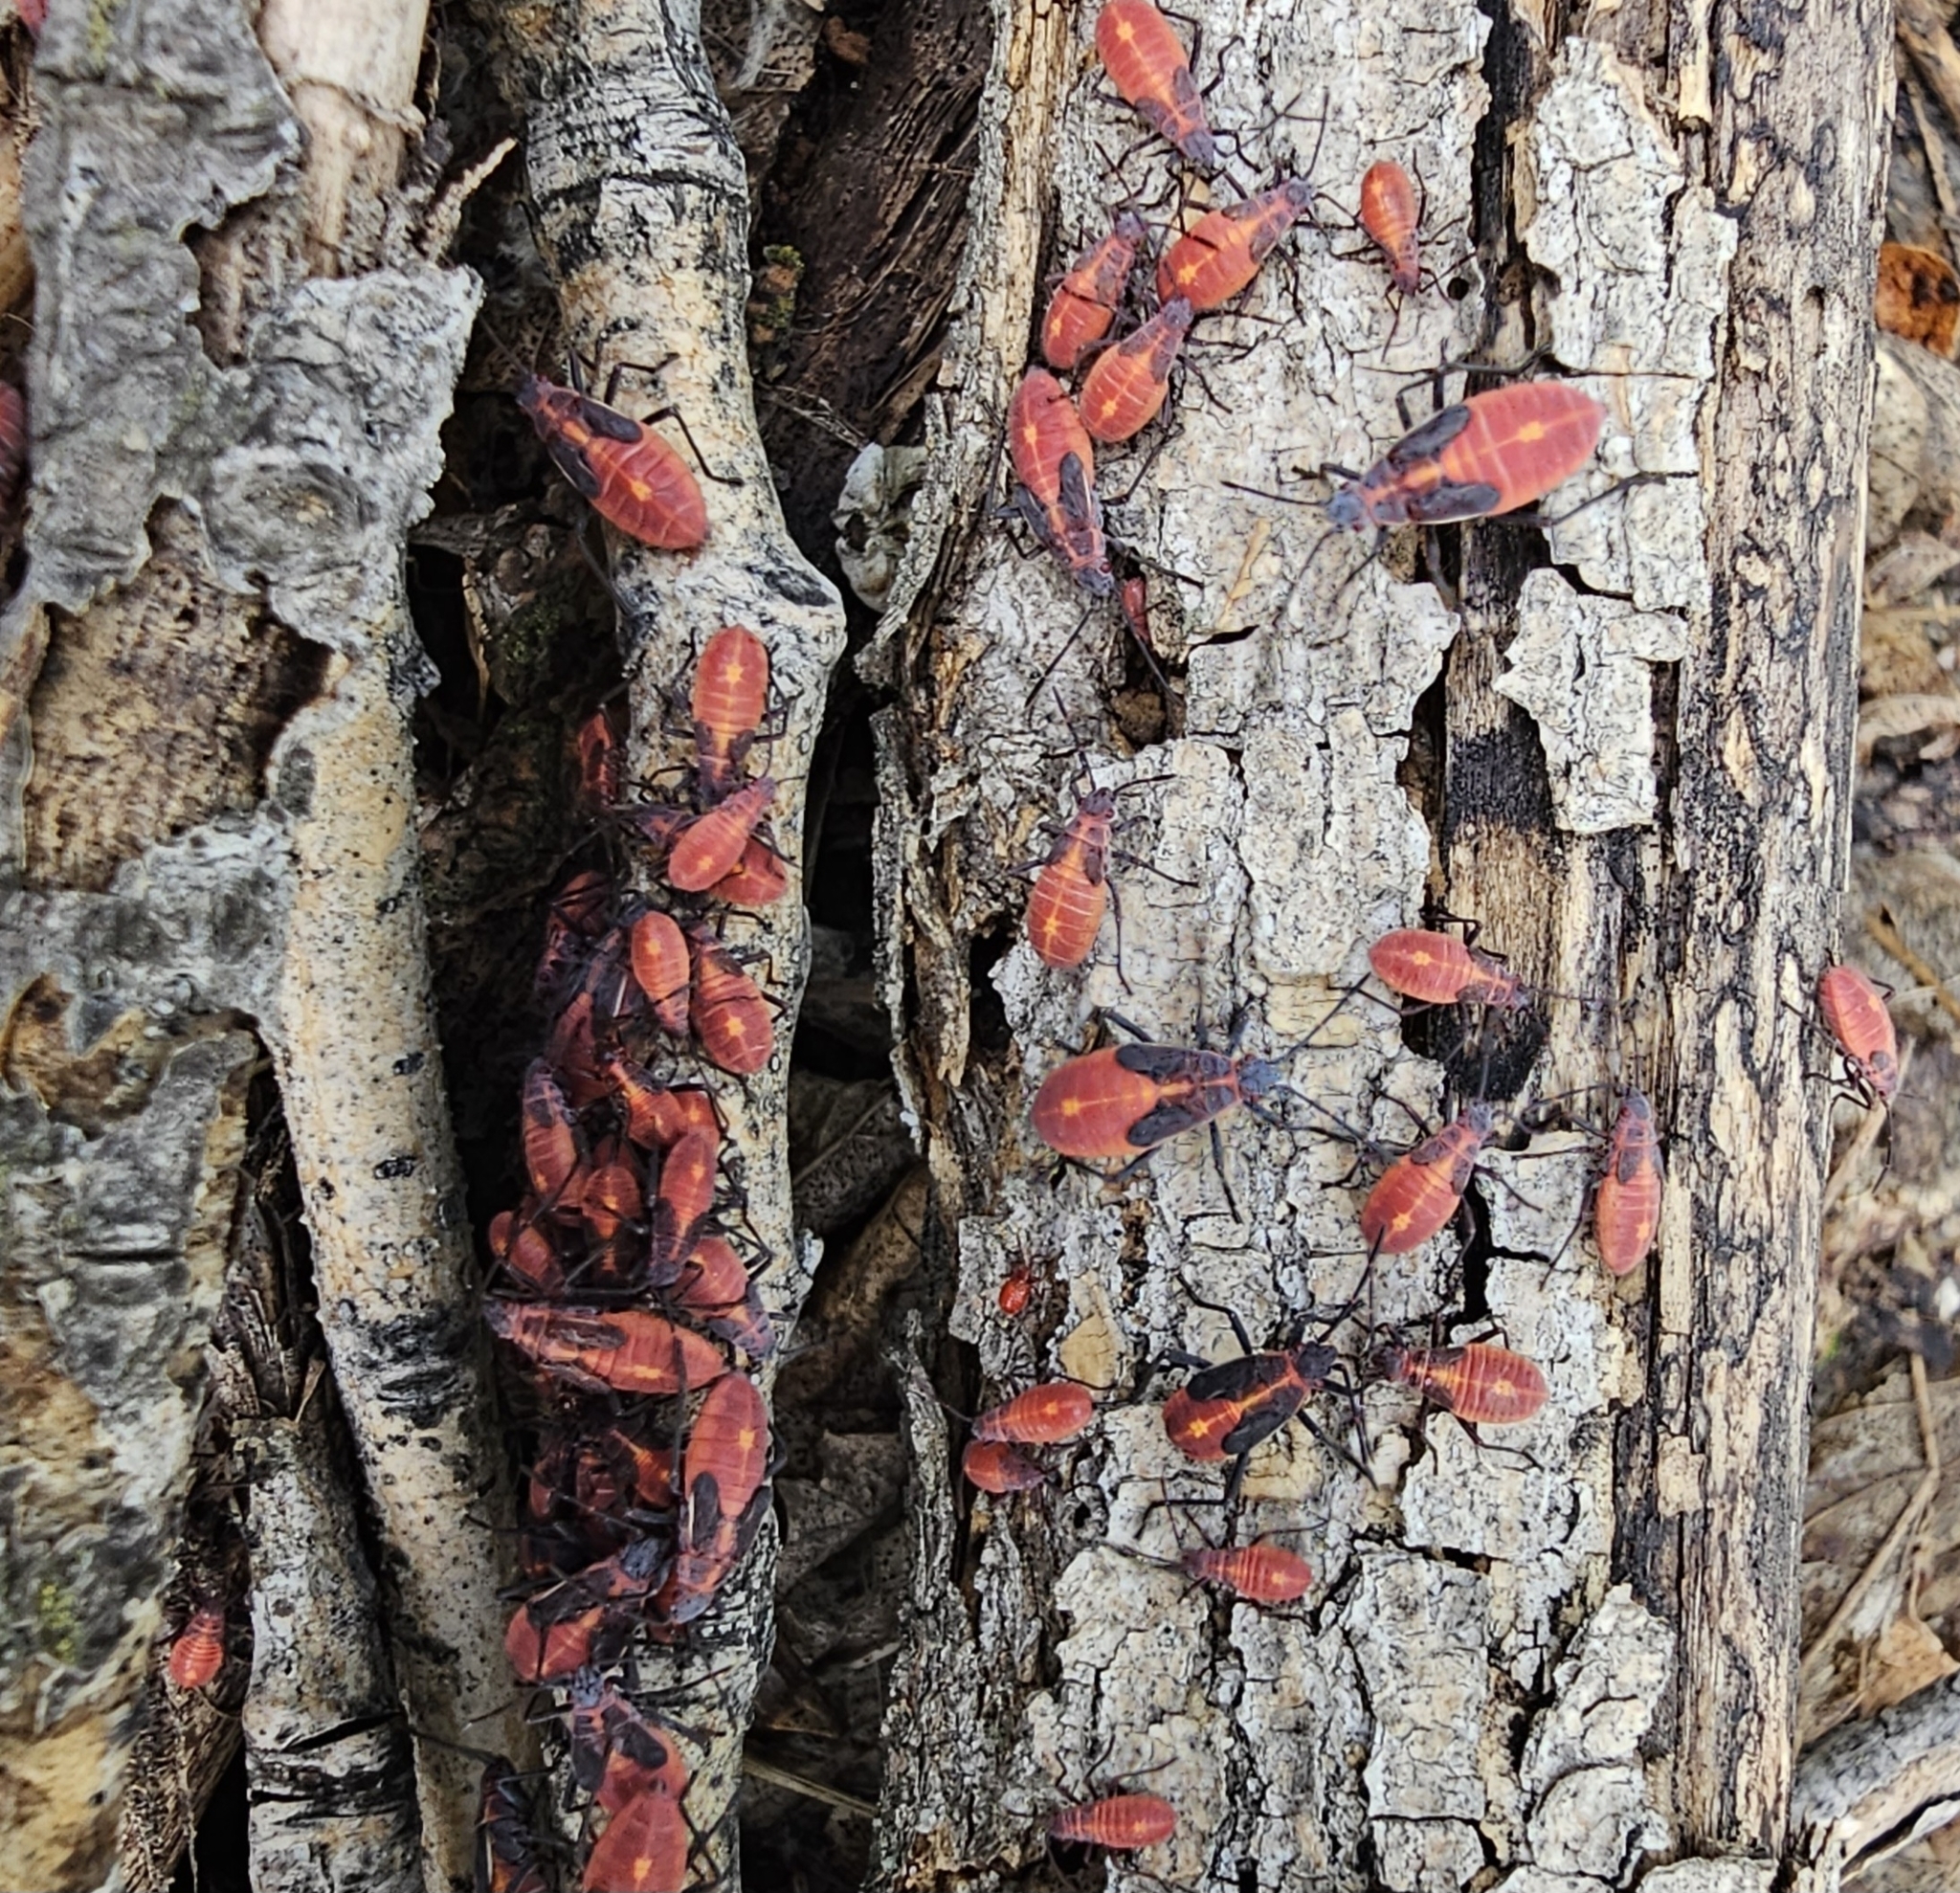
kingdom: Animalia
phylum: Arthropoda
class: Insecta
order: Hemiptera
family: Rhopalidae
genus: Boisea
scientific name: Boisea trivittata
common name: Boxelder bug
